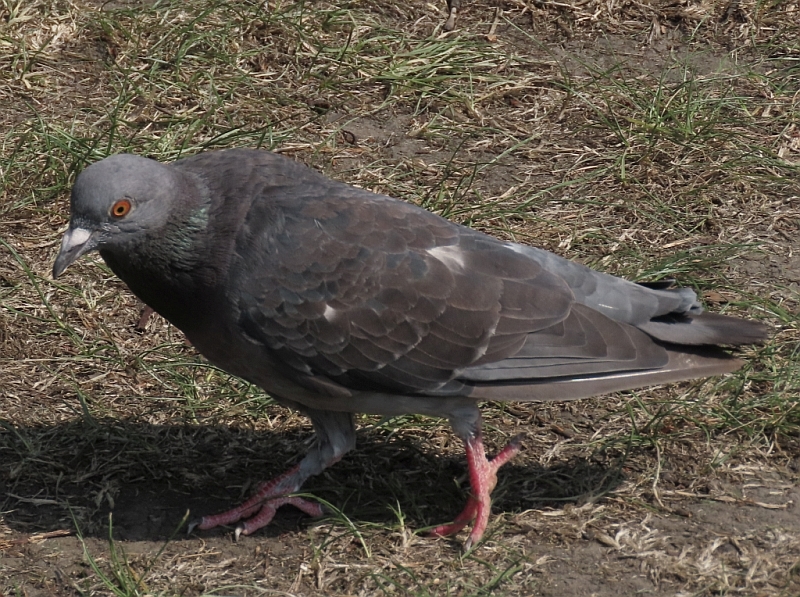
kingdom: Animalia
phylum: Chordata
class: Aves
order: Columbiformes
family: Columbidae
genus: Columba
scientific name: Columba livia
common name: Rock pigeon
